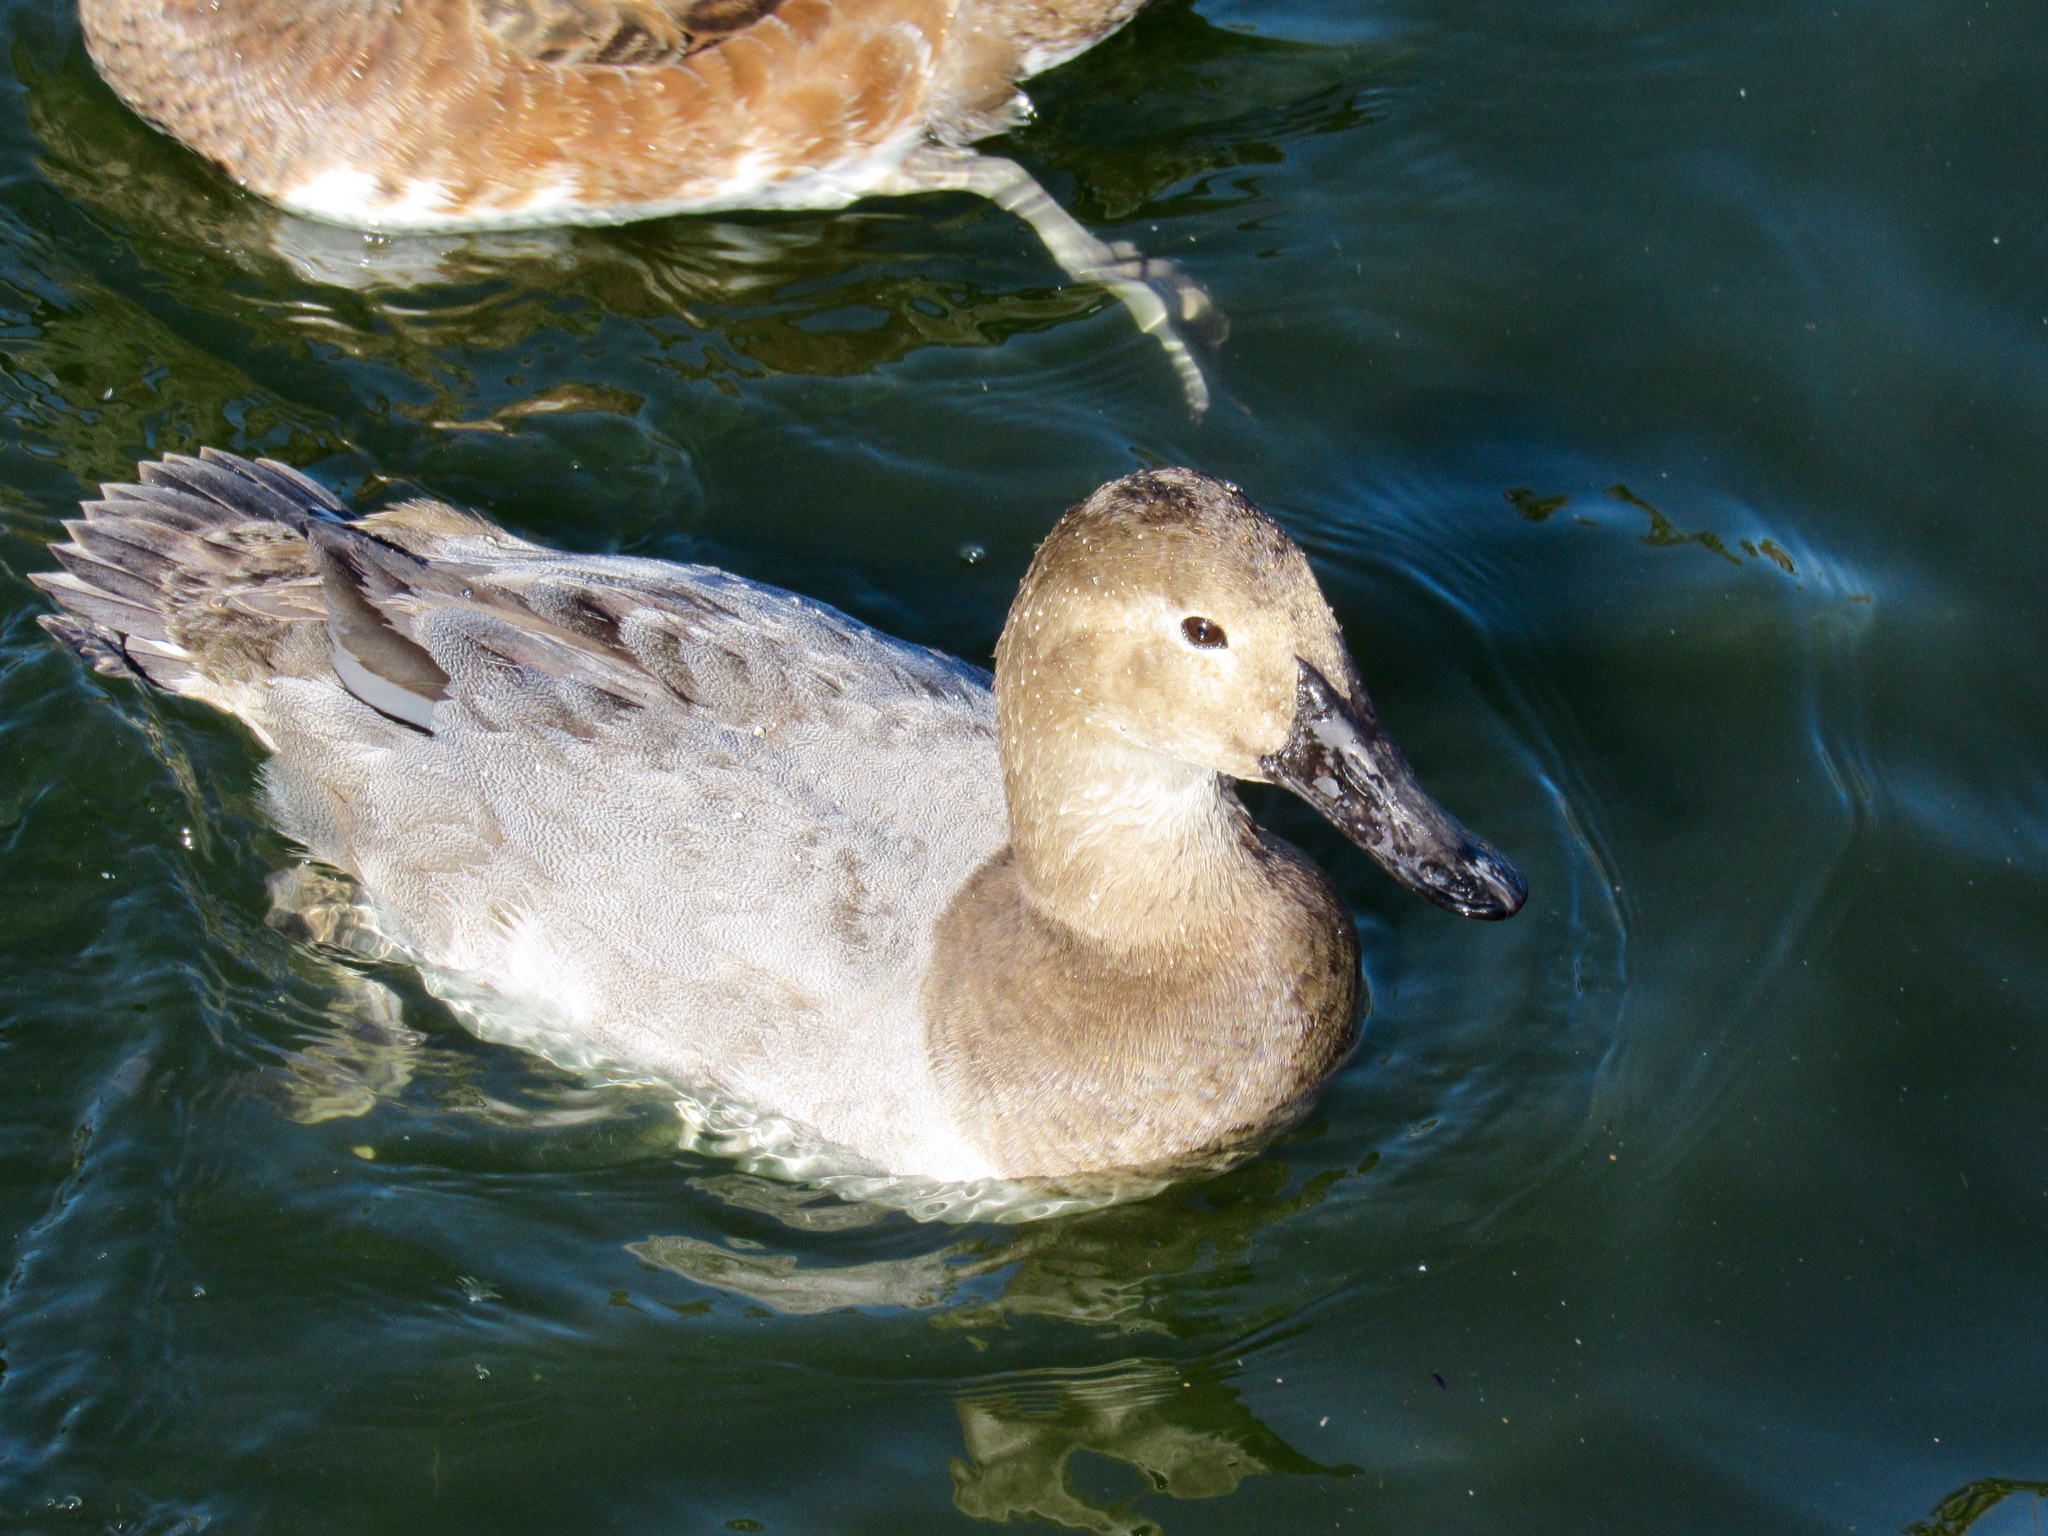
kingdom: Animalia
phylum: Chordata
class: Aves
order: Anseriformes
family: Anatidae
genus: Aythya
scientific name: Aythya valisineria
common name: Canvasback
